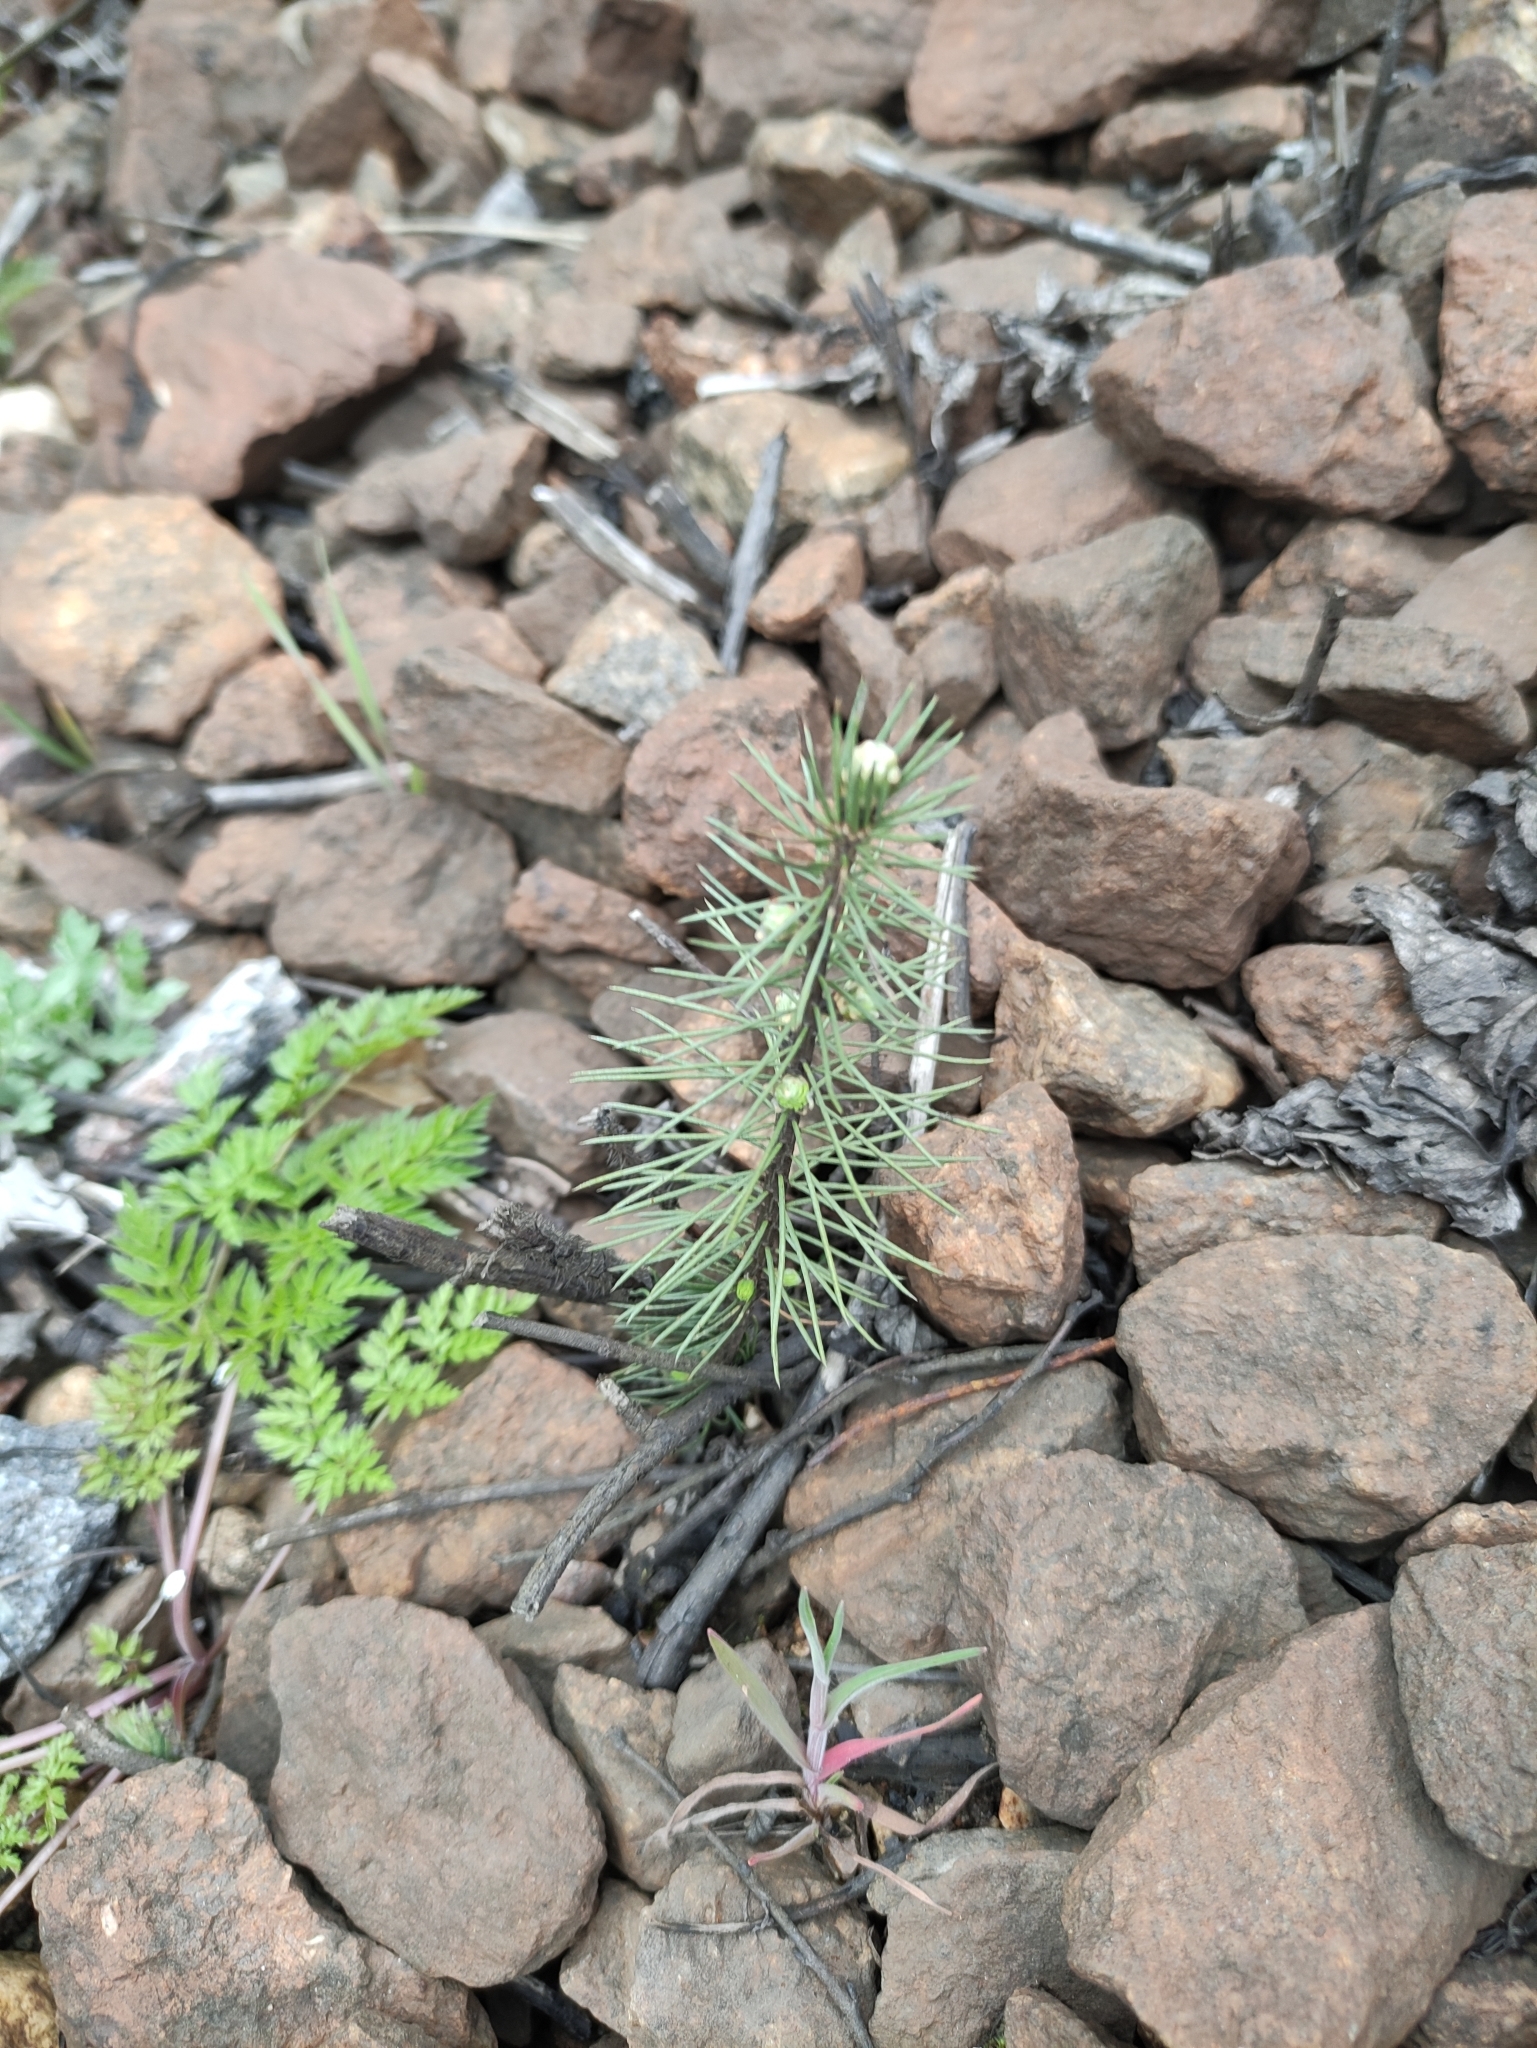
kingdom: Plantae
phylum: Tracheophyta
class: Pinopsida
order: Pinales
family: Pinaceae
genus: Picea
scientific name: Picea abies
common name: Norway spruce
